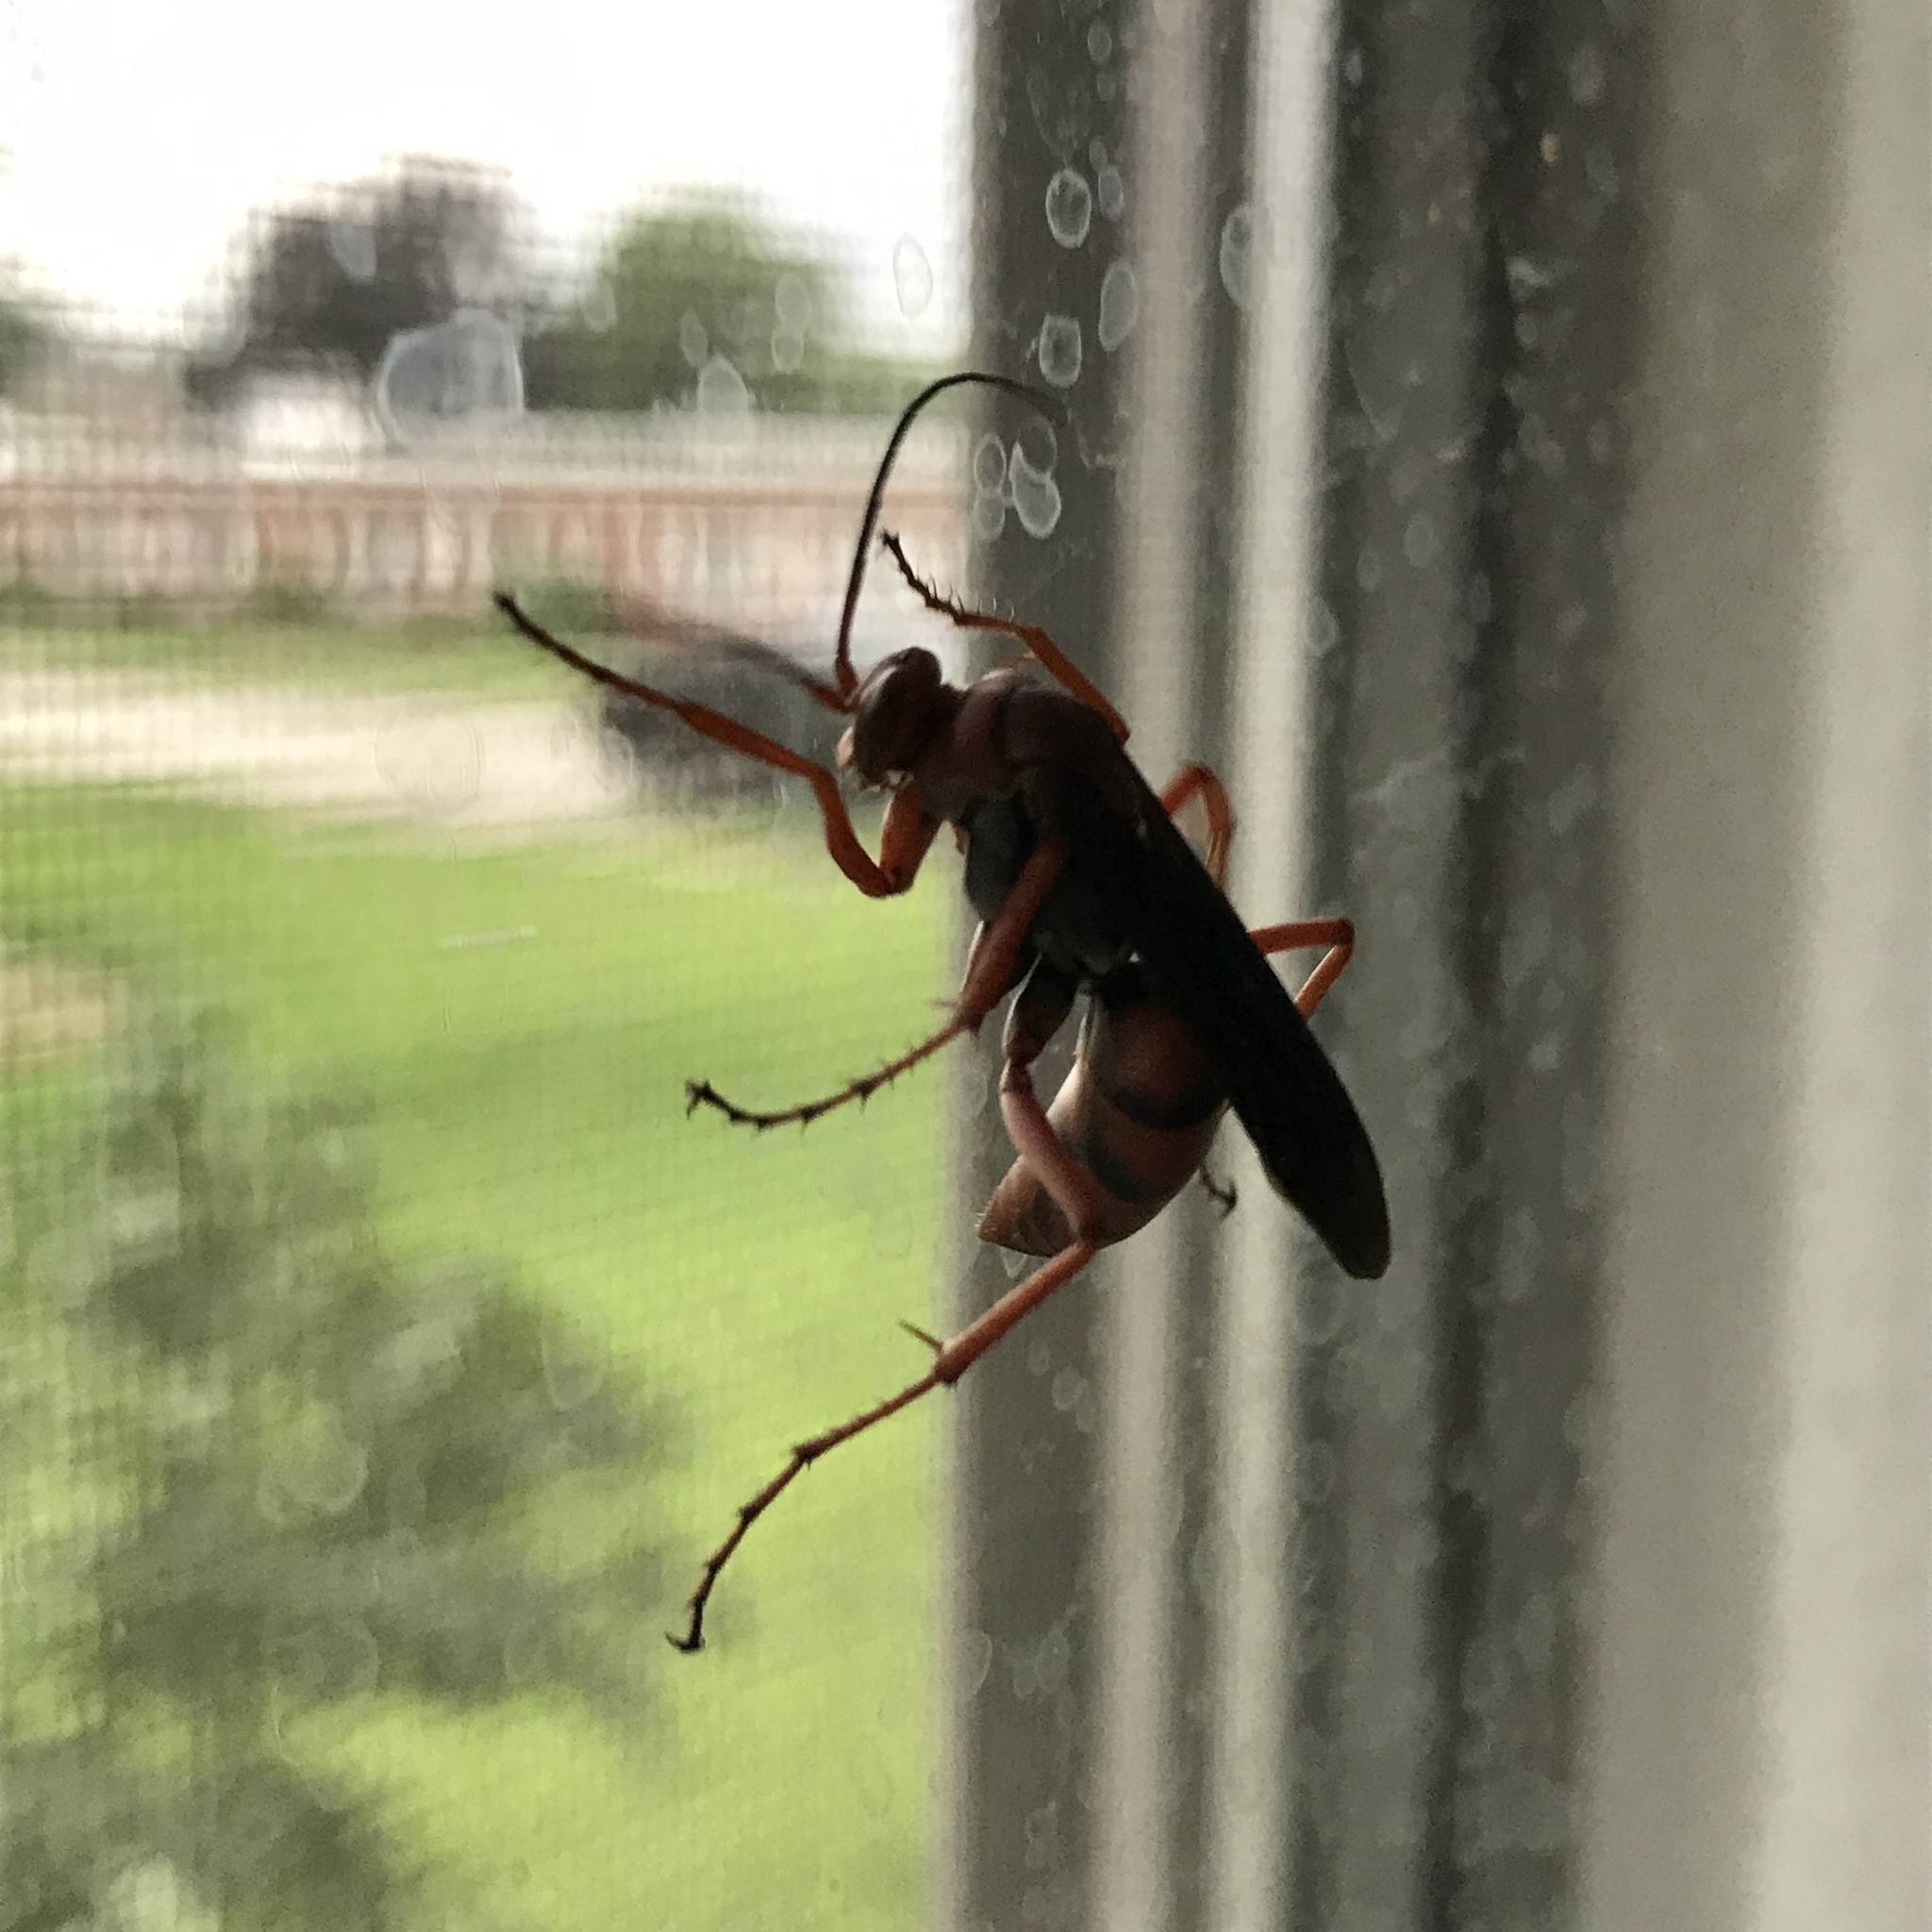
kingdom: Animalia
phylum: Arthropoda
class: Insecta
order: Hymenoptera
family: Pompilidae
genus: Tachypompilus
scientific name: Tachypompilus ferrugineus
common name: Rusty spider wasp
